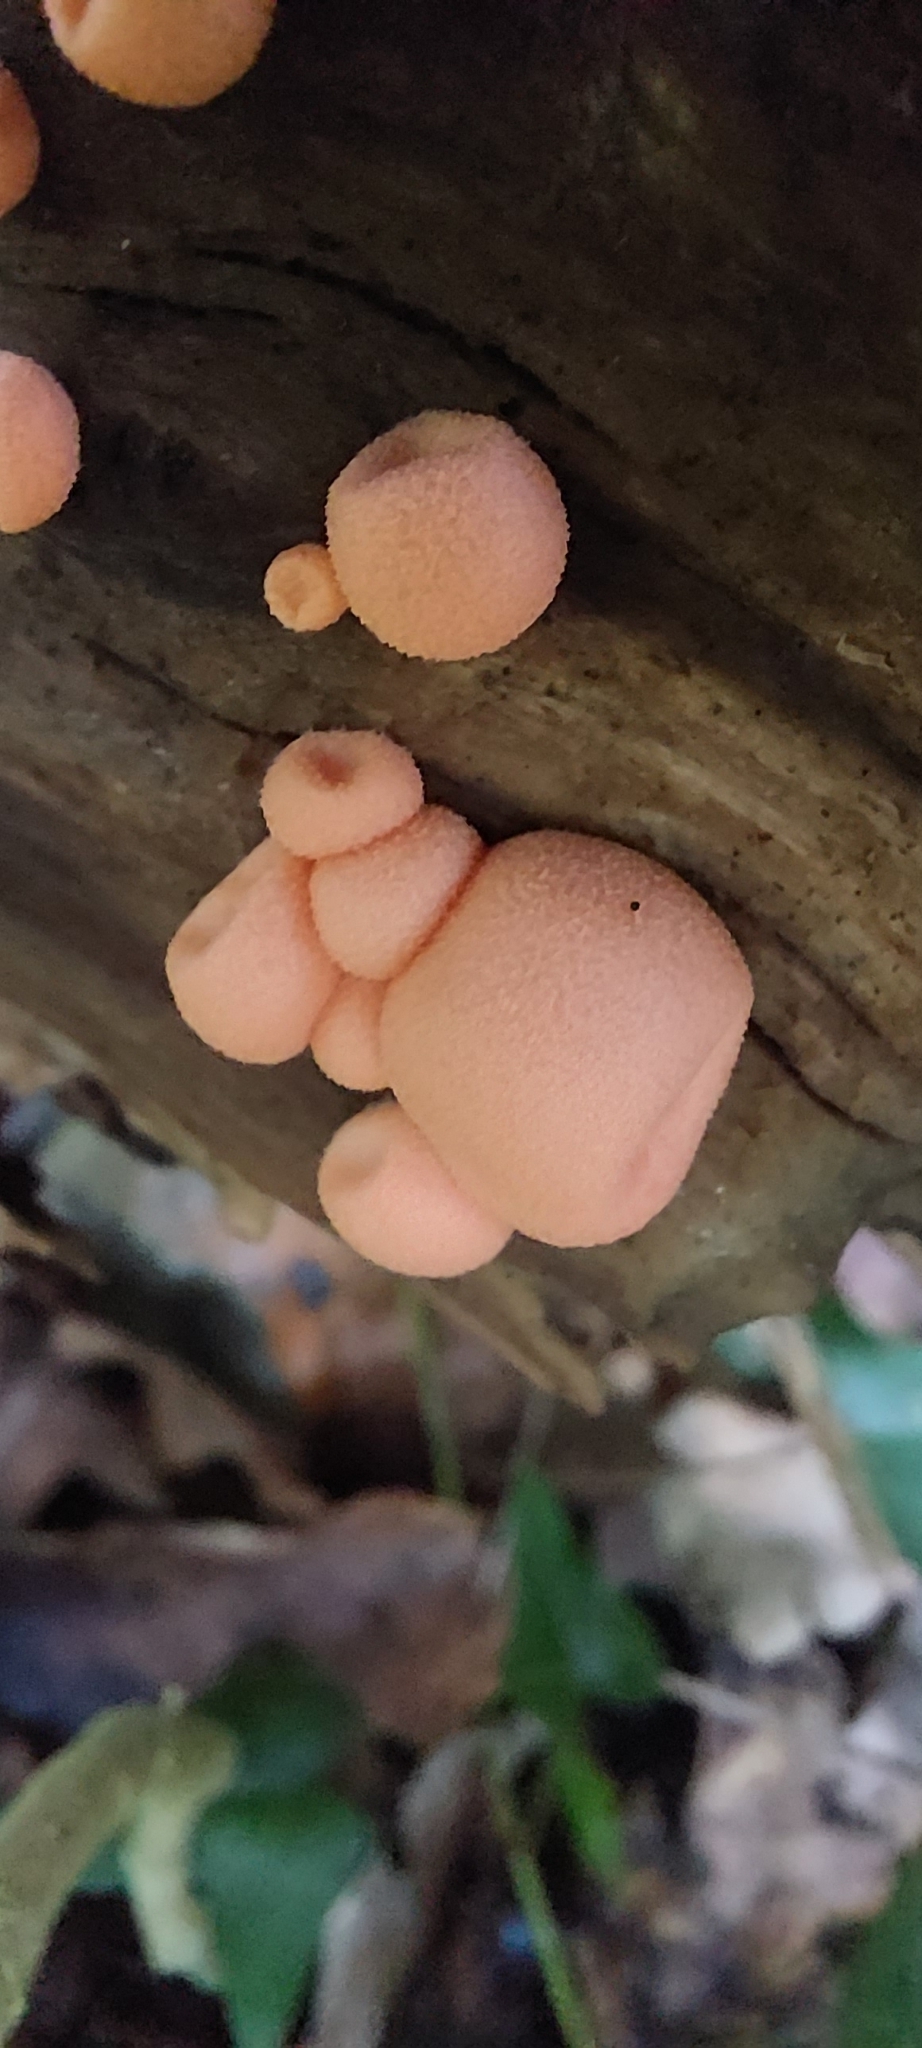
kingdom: Protozoa
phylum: Mycetozoa
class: Myxomycetes
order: Cribrariales
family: Tubiferaceae
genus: Lycogala
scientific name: Lycogala epidendrum
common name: Wolf's milk
